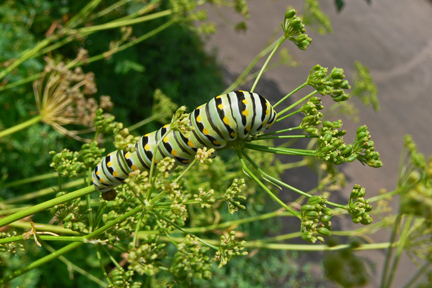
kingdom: Animalia
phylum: Arthropoda
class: Insecta
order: Lepidoptera
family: Papilionidae
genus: Papilio
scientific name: Papilio polyxenes
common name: Black swallowtail
